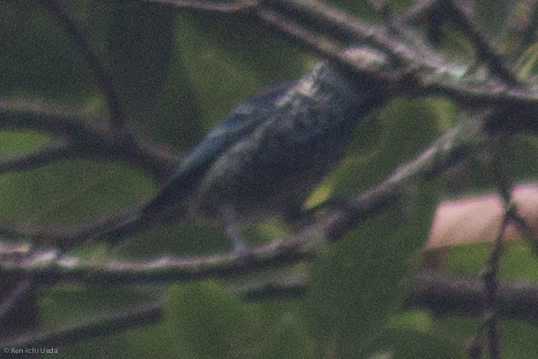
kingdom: Animalia
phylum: Chordata
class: Aves
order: Passeriformes
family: Thraupidae
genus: Tangara
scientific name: Tangara nigroviridis
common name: Beryl-spangled tanager
